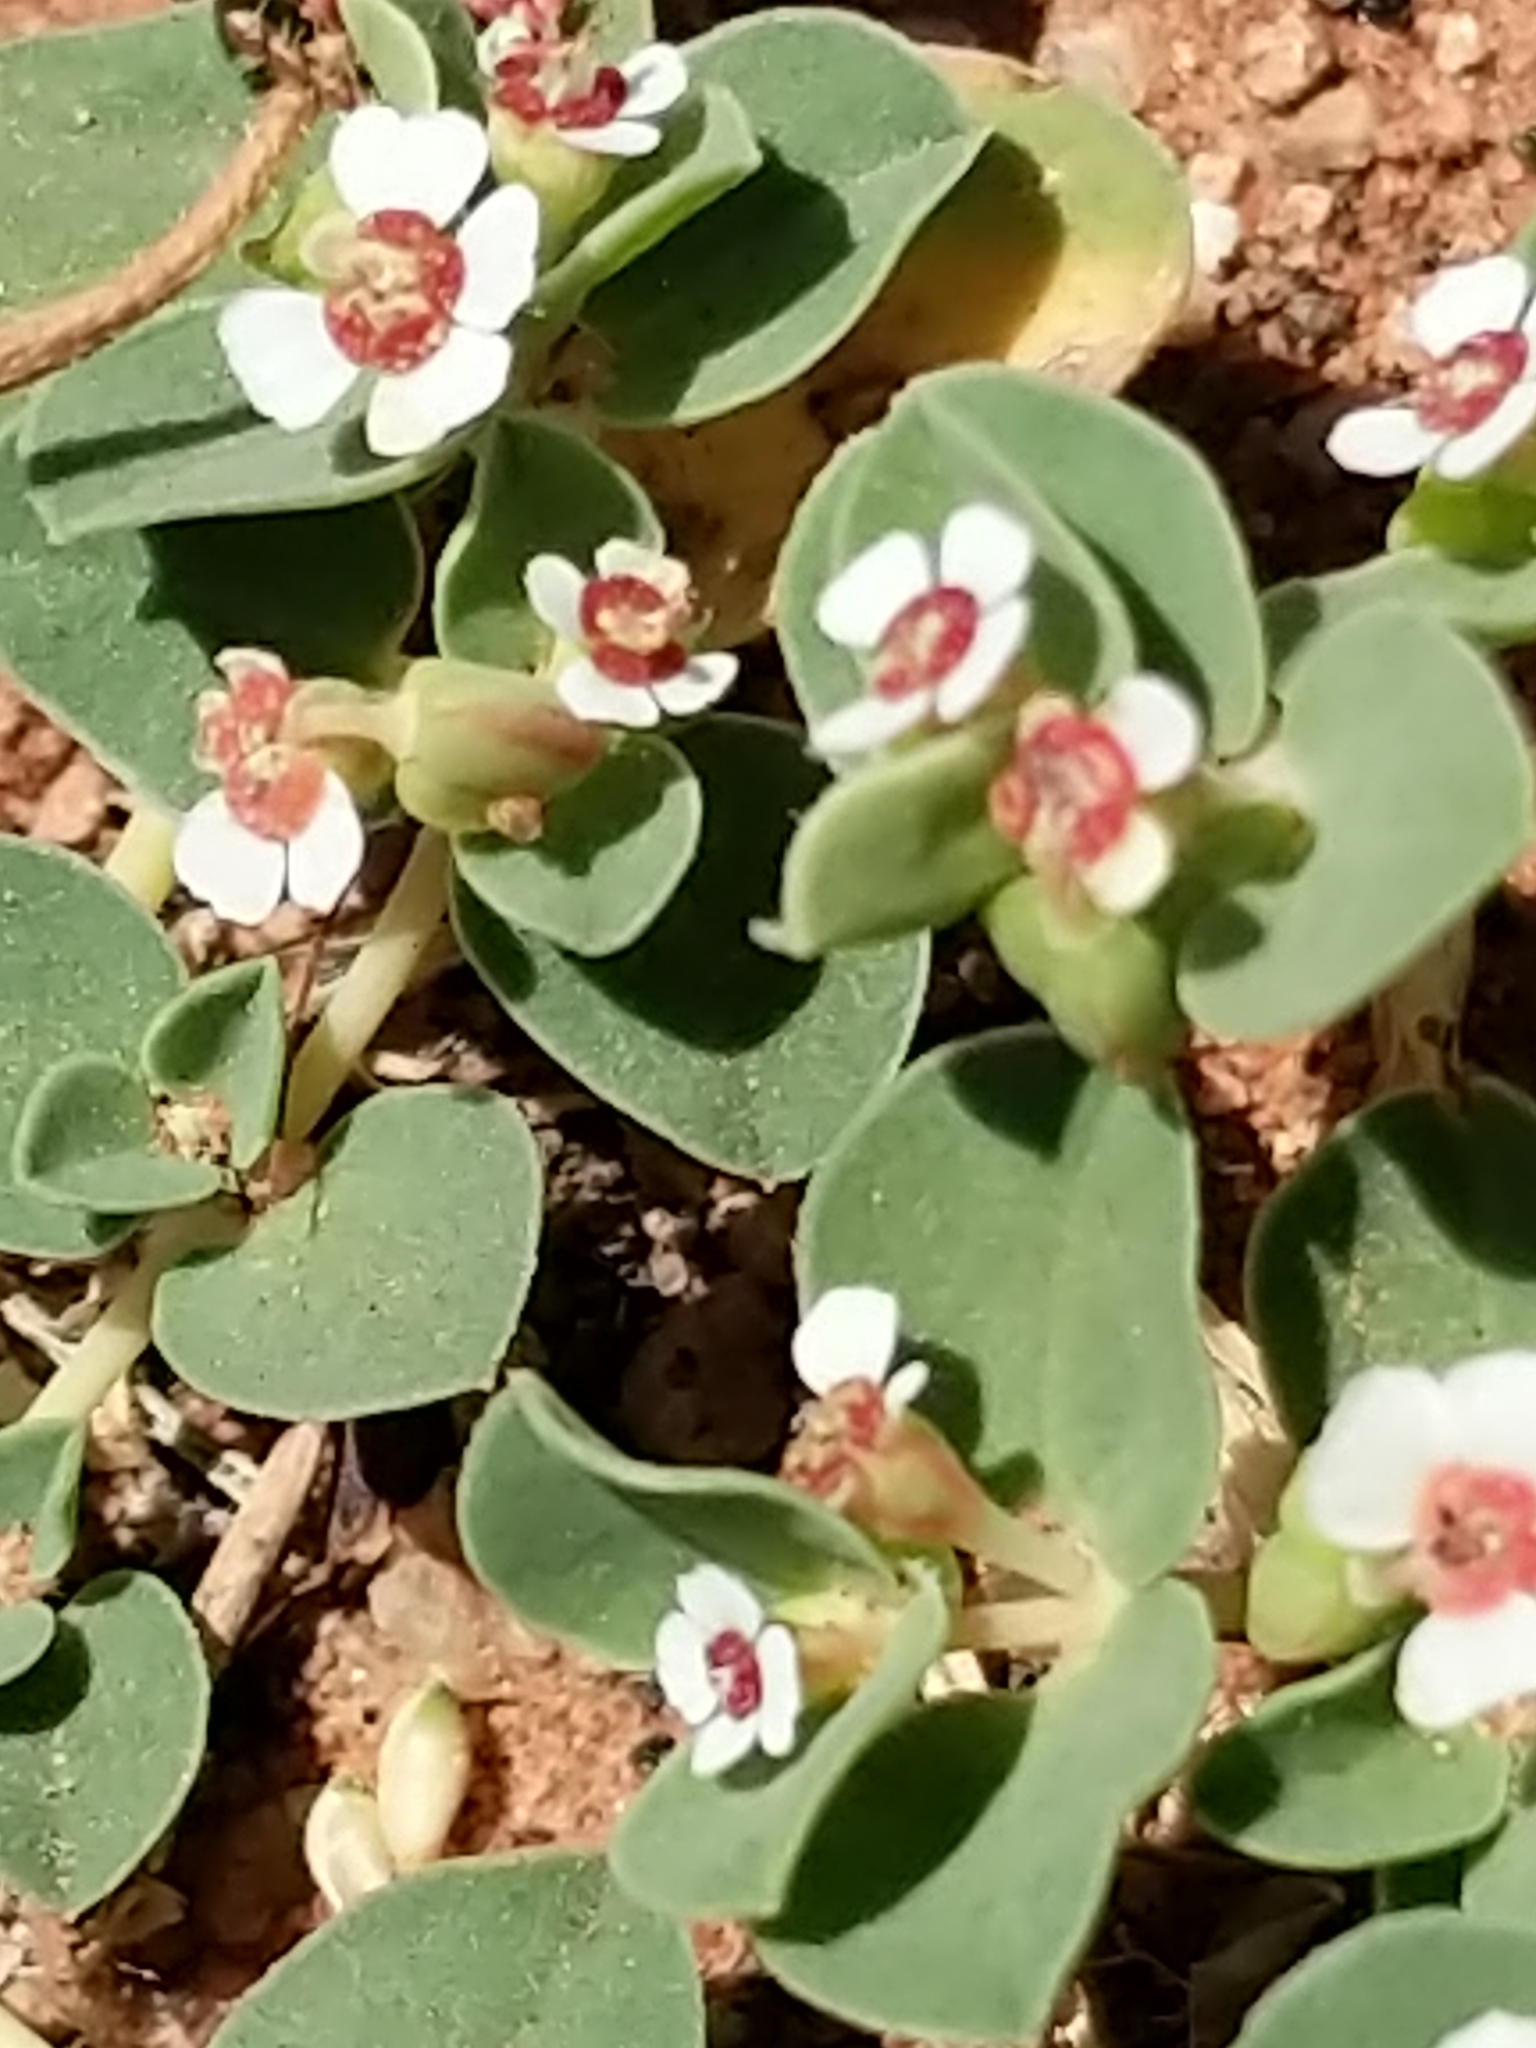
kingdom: Plantae
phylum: Tracheophyta
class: Magnoliopsida
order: Malpighiales
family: Euphorbiaceae
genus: Euphorbia
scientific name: Euphorbia albomarginata
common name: Whitemargin sandmat
